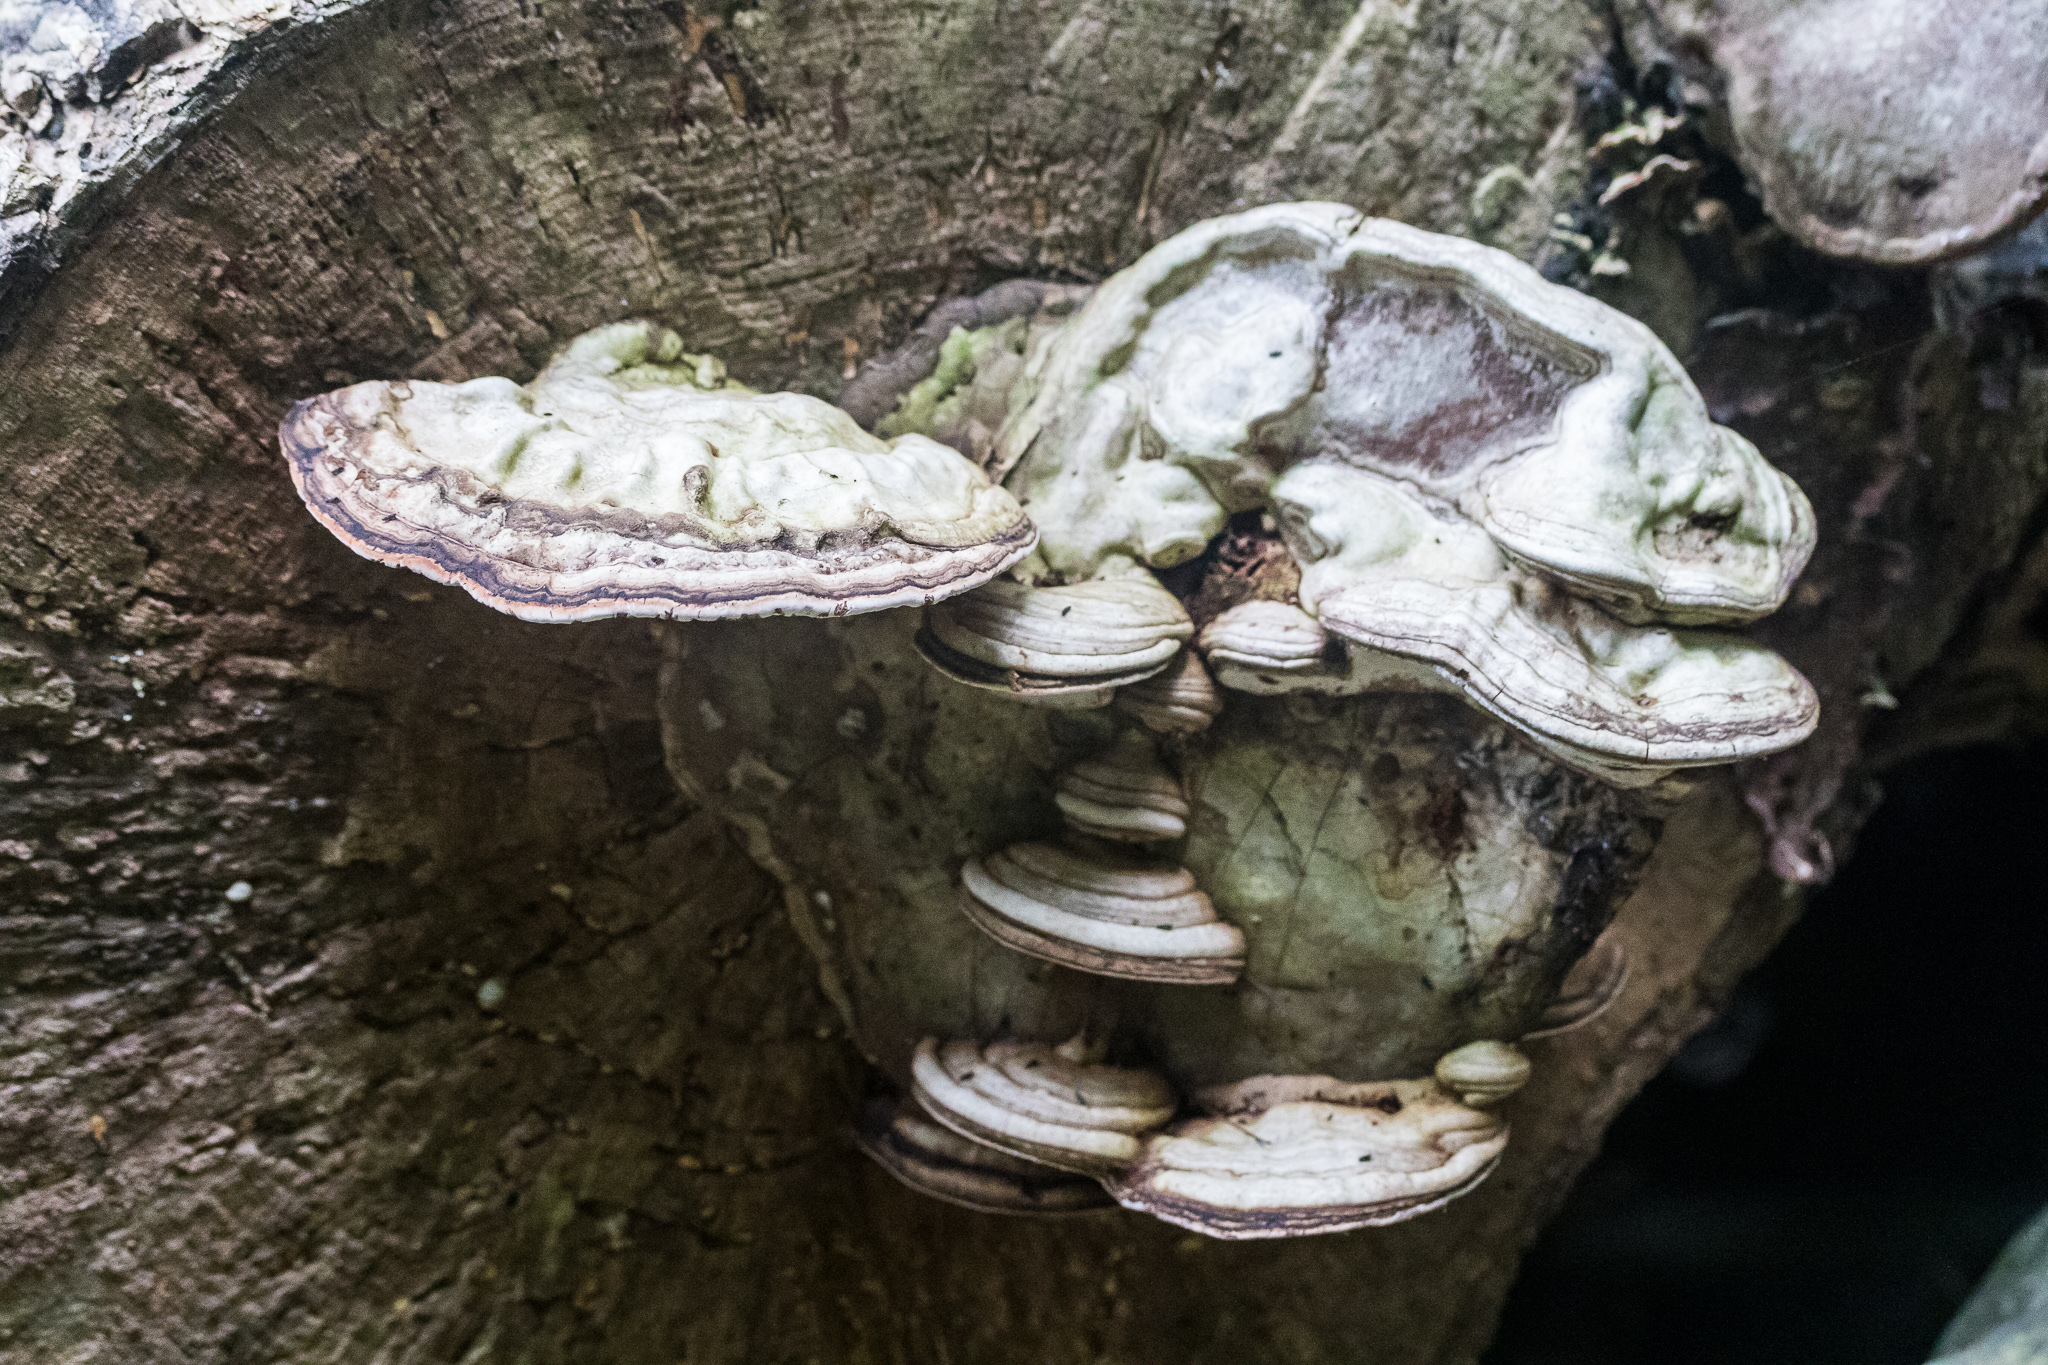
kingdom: Fungi
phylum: Basidiomycota
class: Agaricomycetes
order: Polyporales
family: Polyporaceae
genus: Ganoderma
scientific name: Ganoderma applanatum
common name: Artist's bracket
